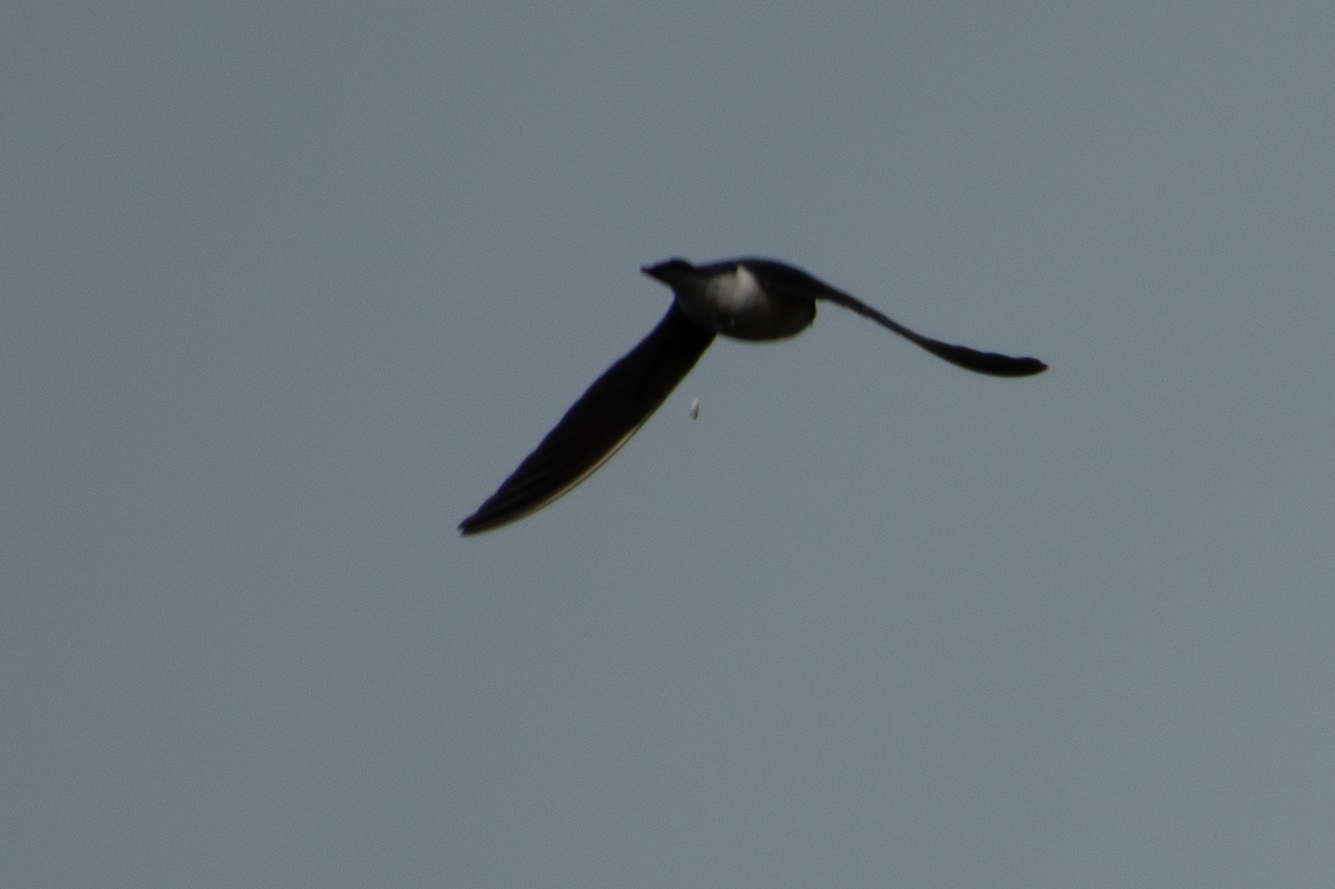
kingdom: Animalia
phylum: Chordata
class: Aves
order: Passeriformes
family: Hirundinidae
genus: Tachycineta
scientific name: Tachycineta bicolor
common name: Tree swallow
